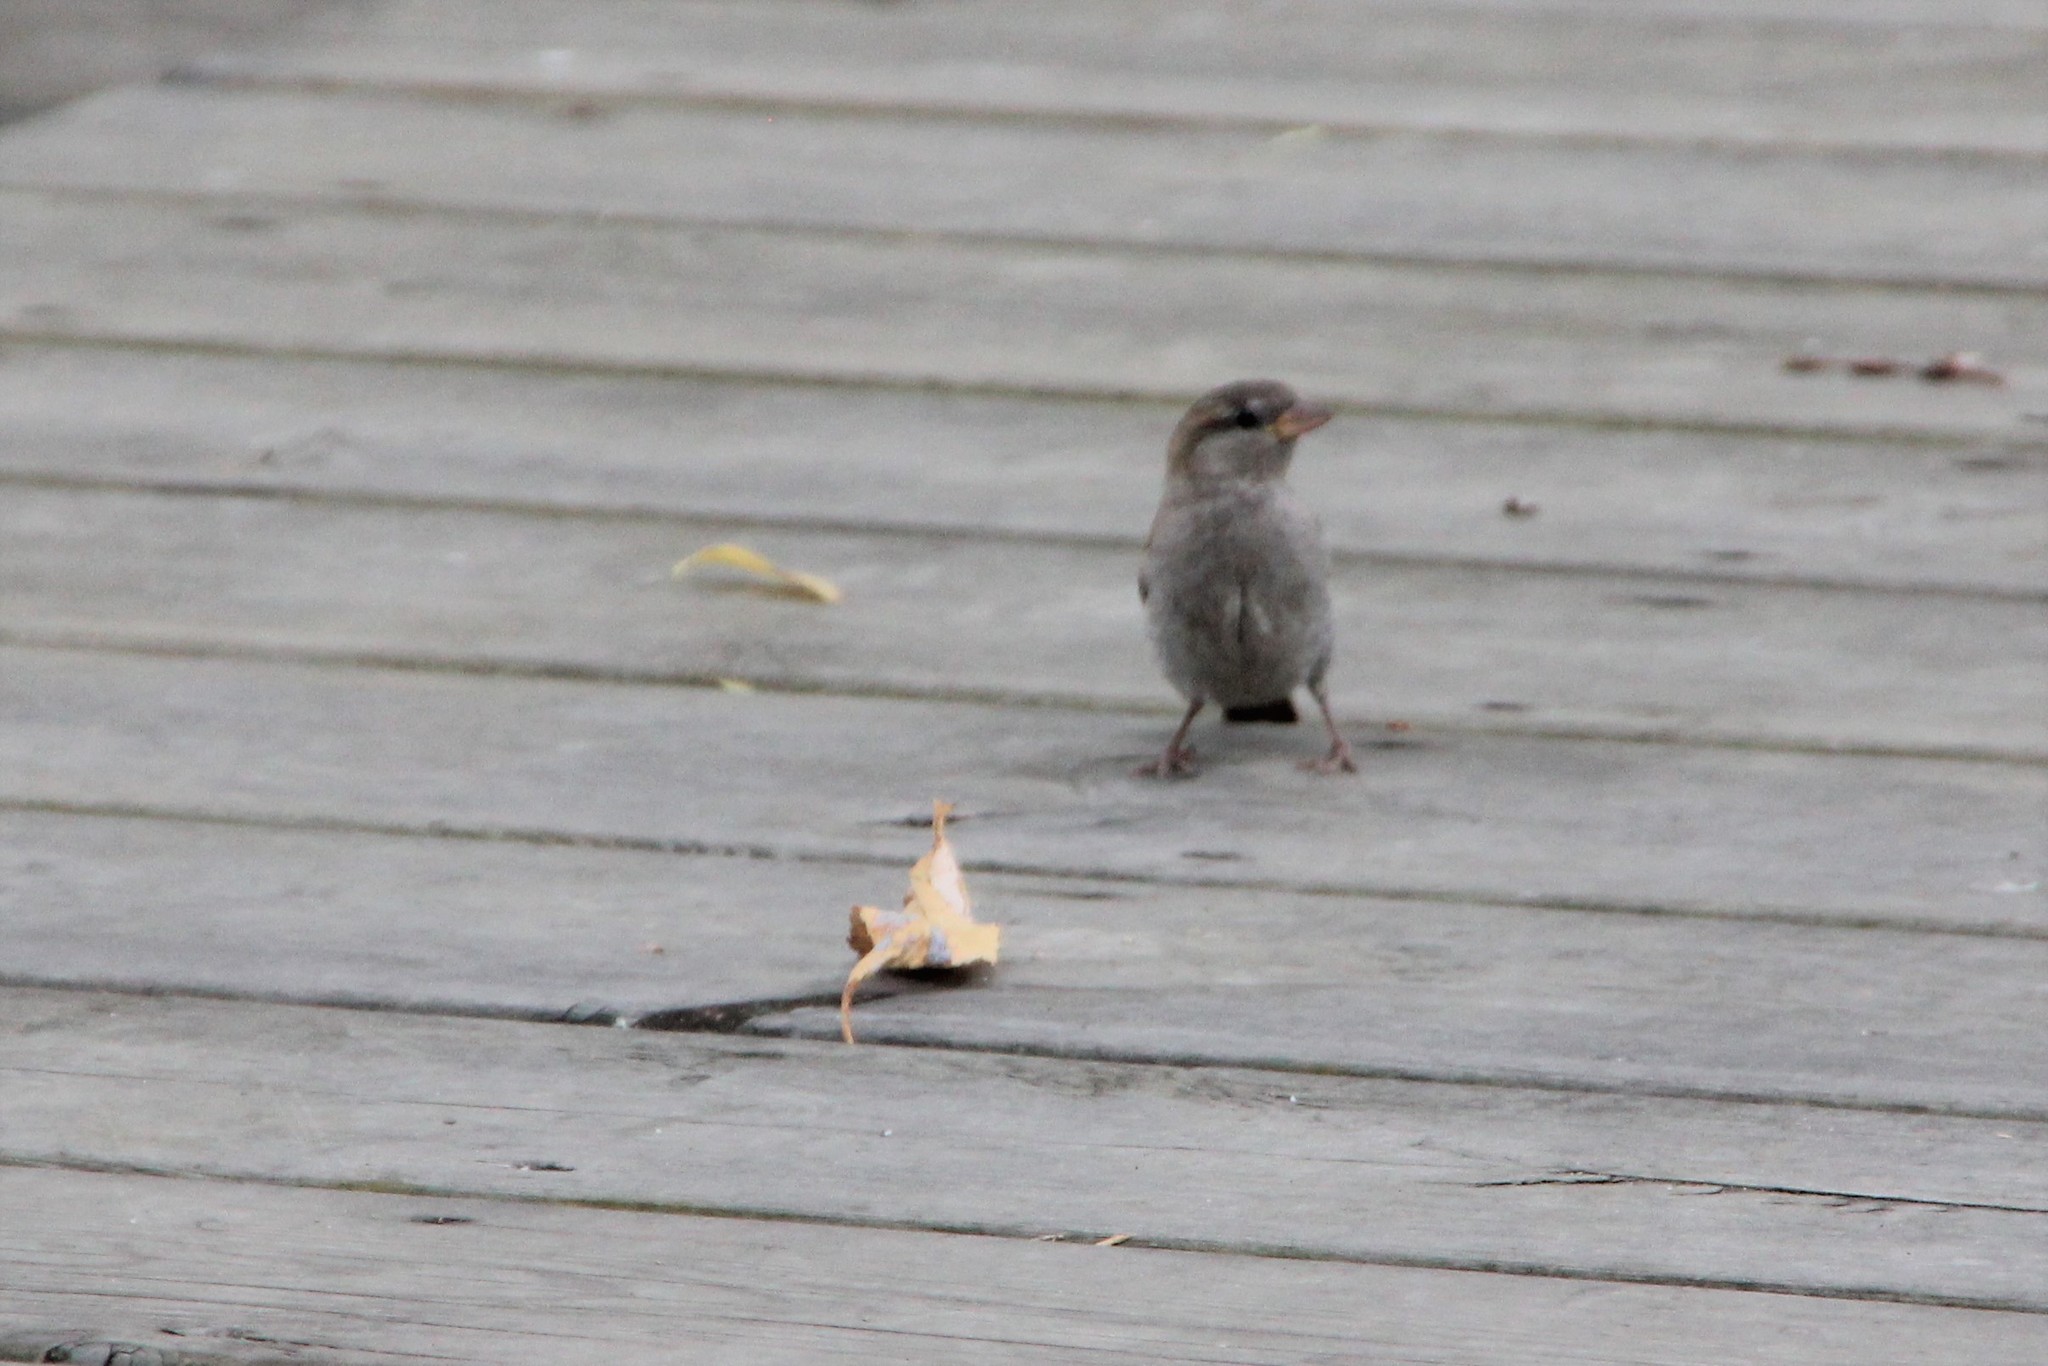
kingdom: Animalia
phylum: Chordata
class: Aves
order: Passeriformes
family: Passeridae
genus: Passer
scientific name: Passer domesticus
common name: House sparrow
